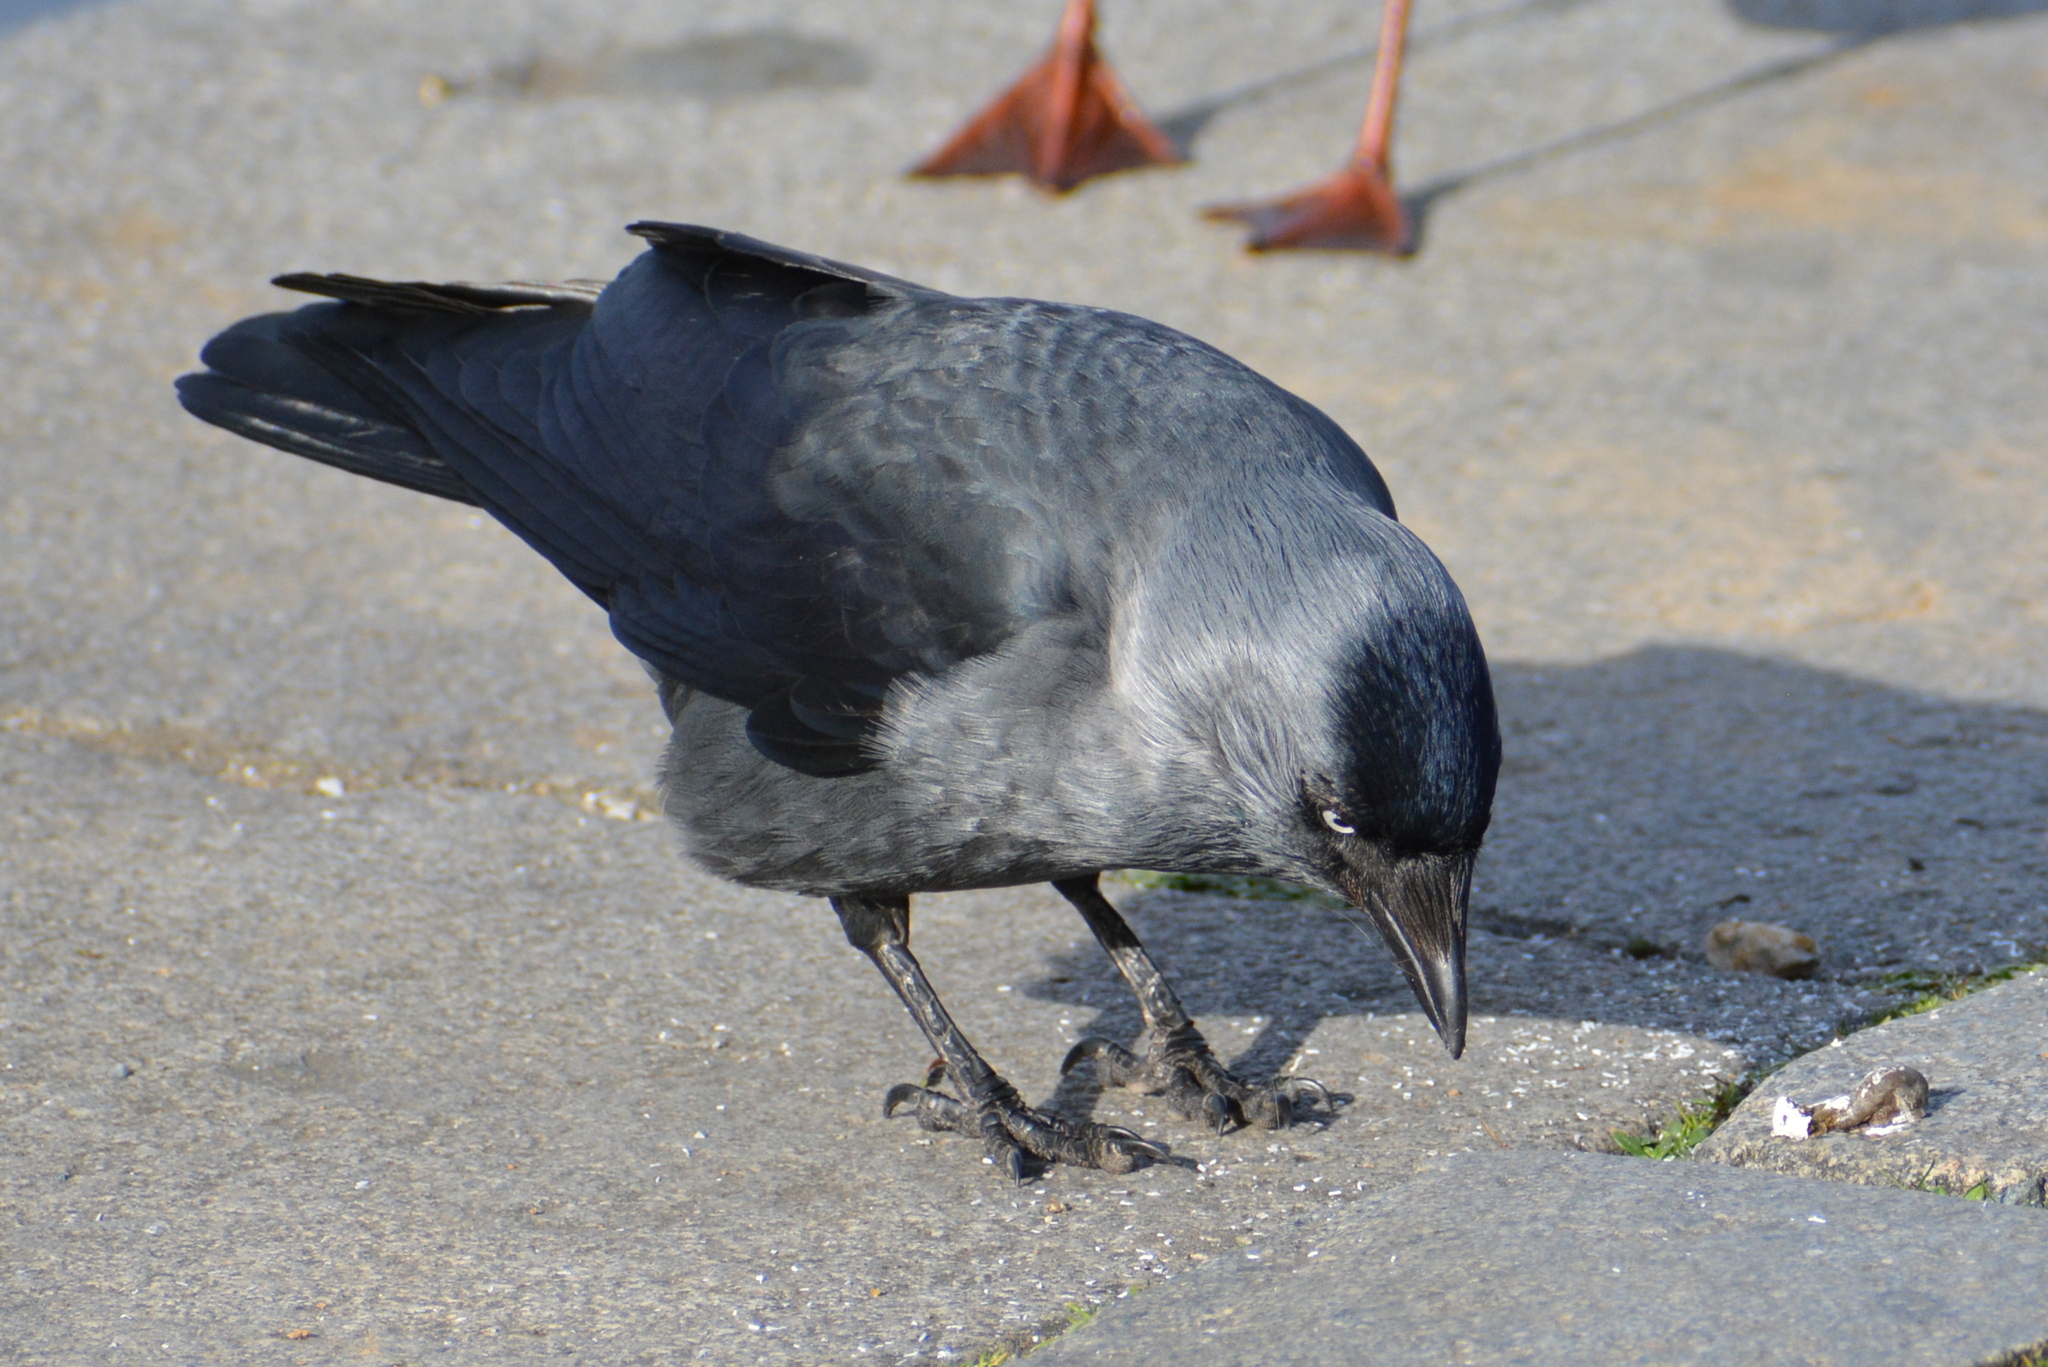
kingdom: Animalia
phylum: Chordata
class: Aves
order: Passeriformes
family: Corvidae
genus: Coloeus
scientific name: Coloeus monedula
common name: Western jackdaw
